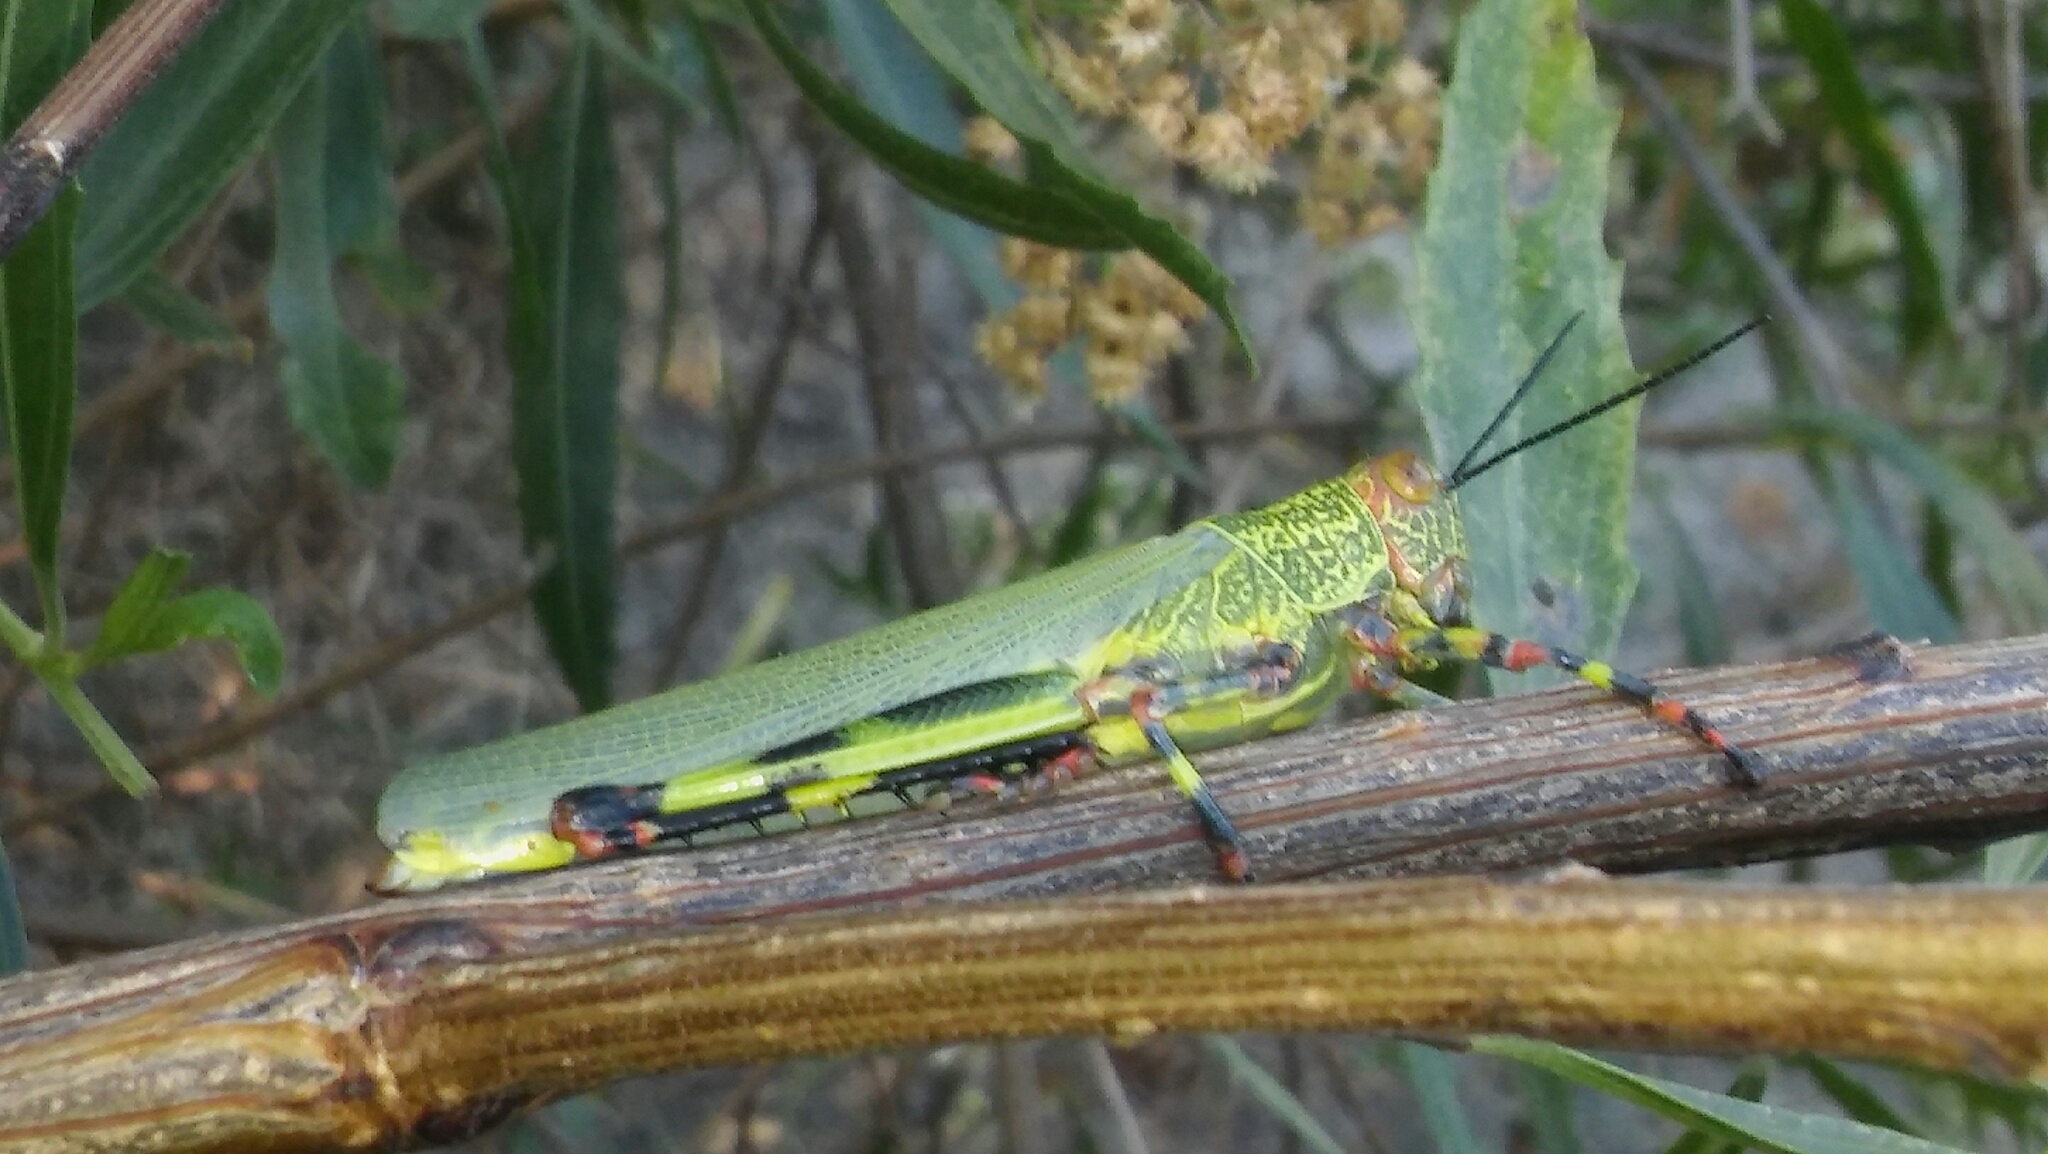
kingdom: Animalia
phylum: Arthropoda
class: Insecta
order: Orthoptera
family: Romaleidae
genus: Zoniopoda
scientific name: Zoniopoda tarsata
